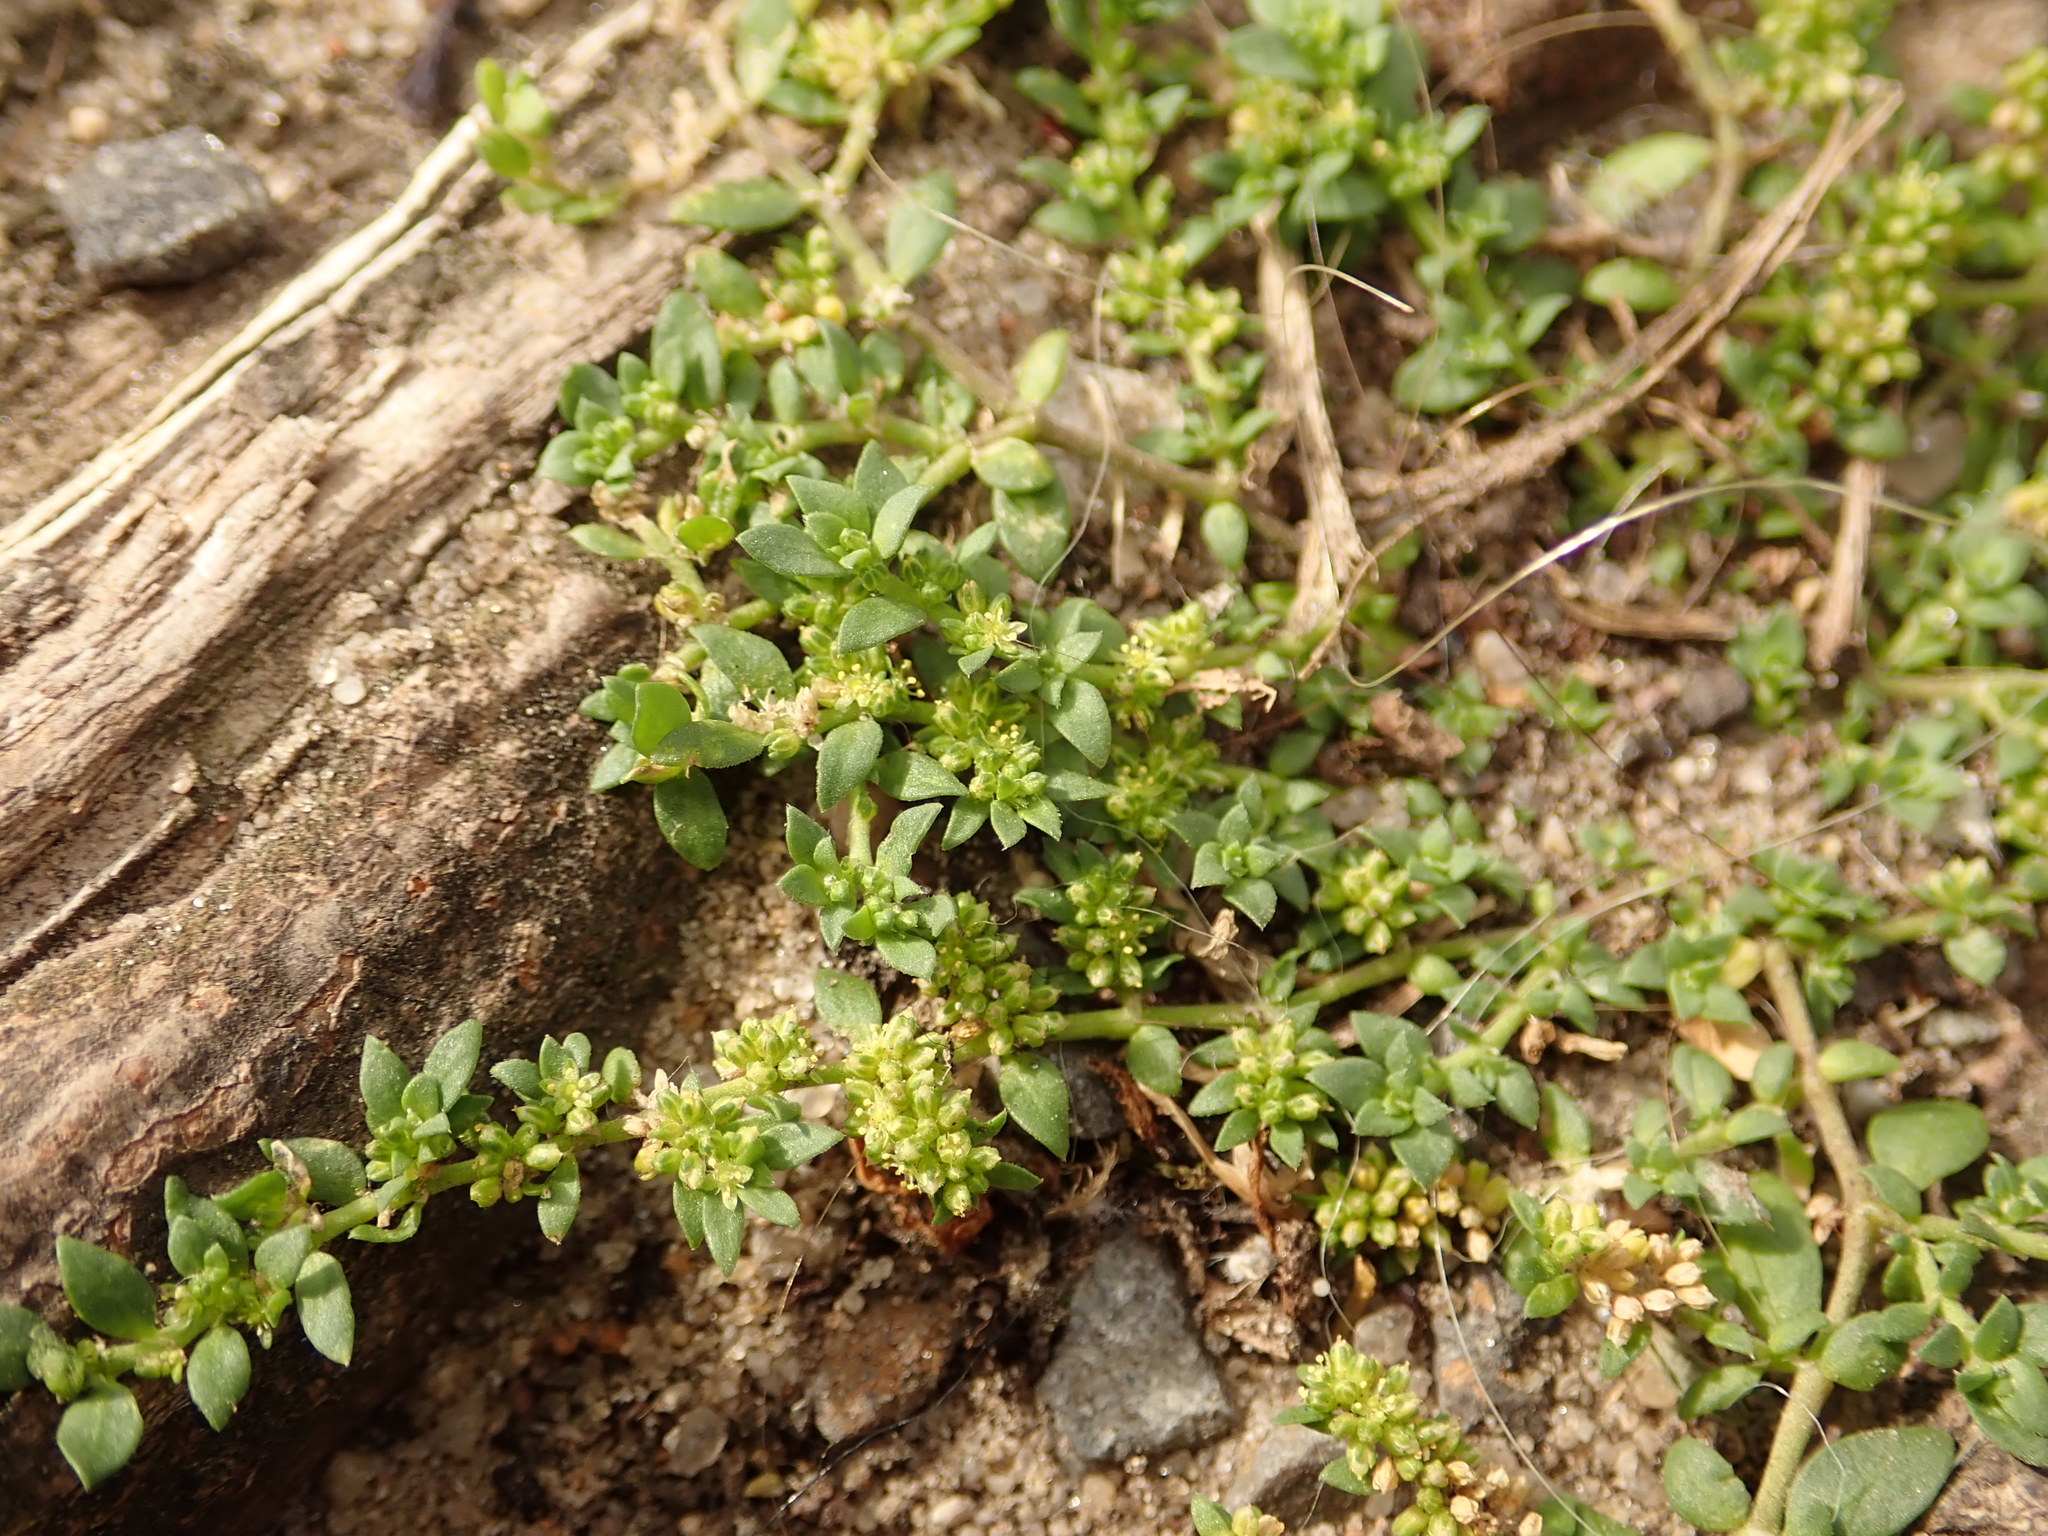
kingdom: Plantae
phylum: Tracheophyta
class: Magnoliopsida
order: Caryophyllales
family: Caryophyllaceae
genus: Herniaria
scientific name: Herniaria glabra
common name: Smooth rupturewort
